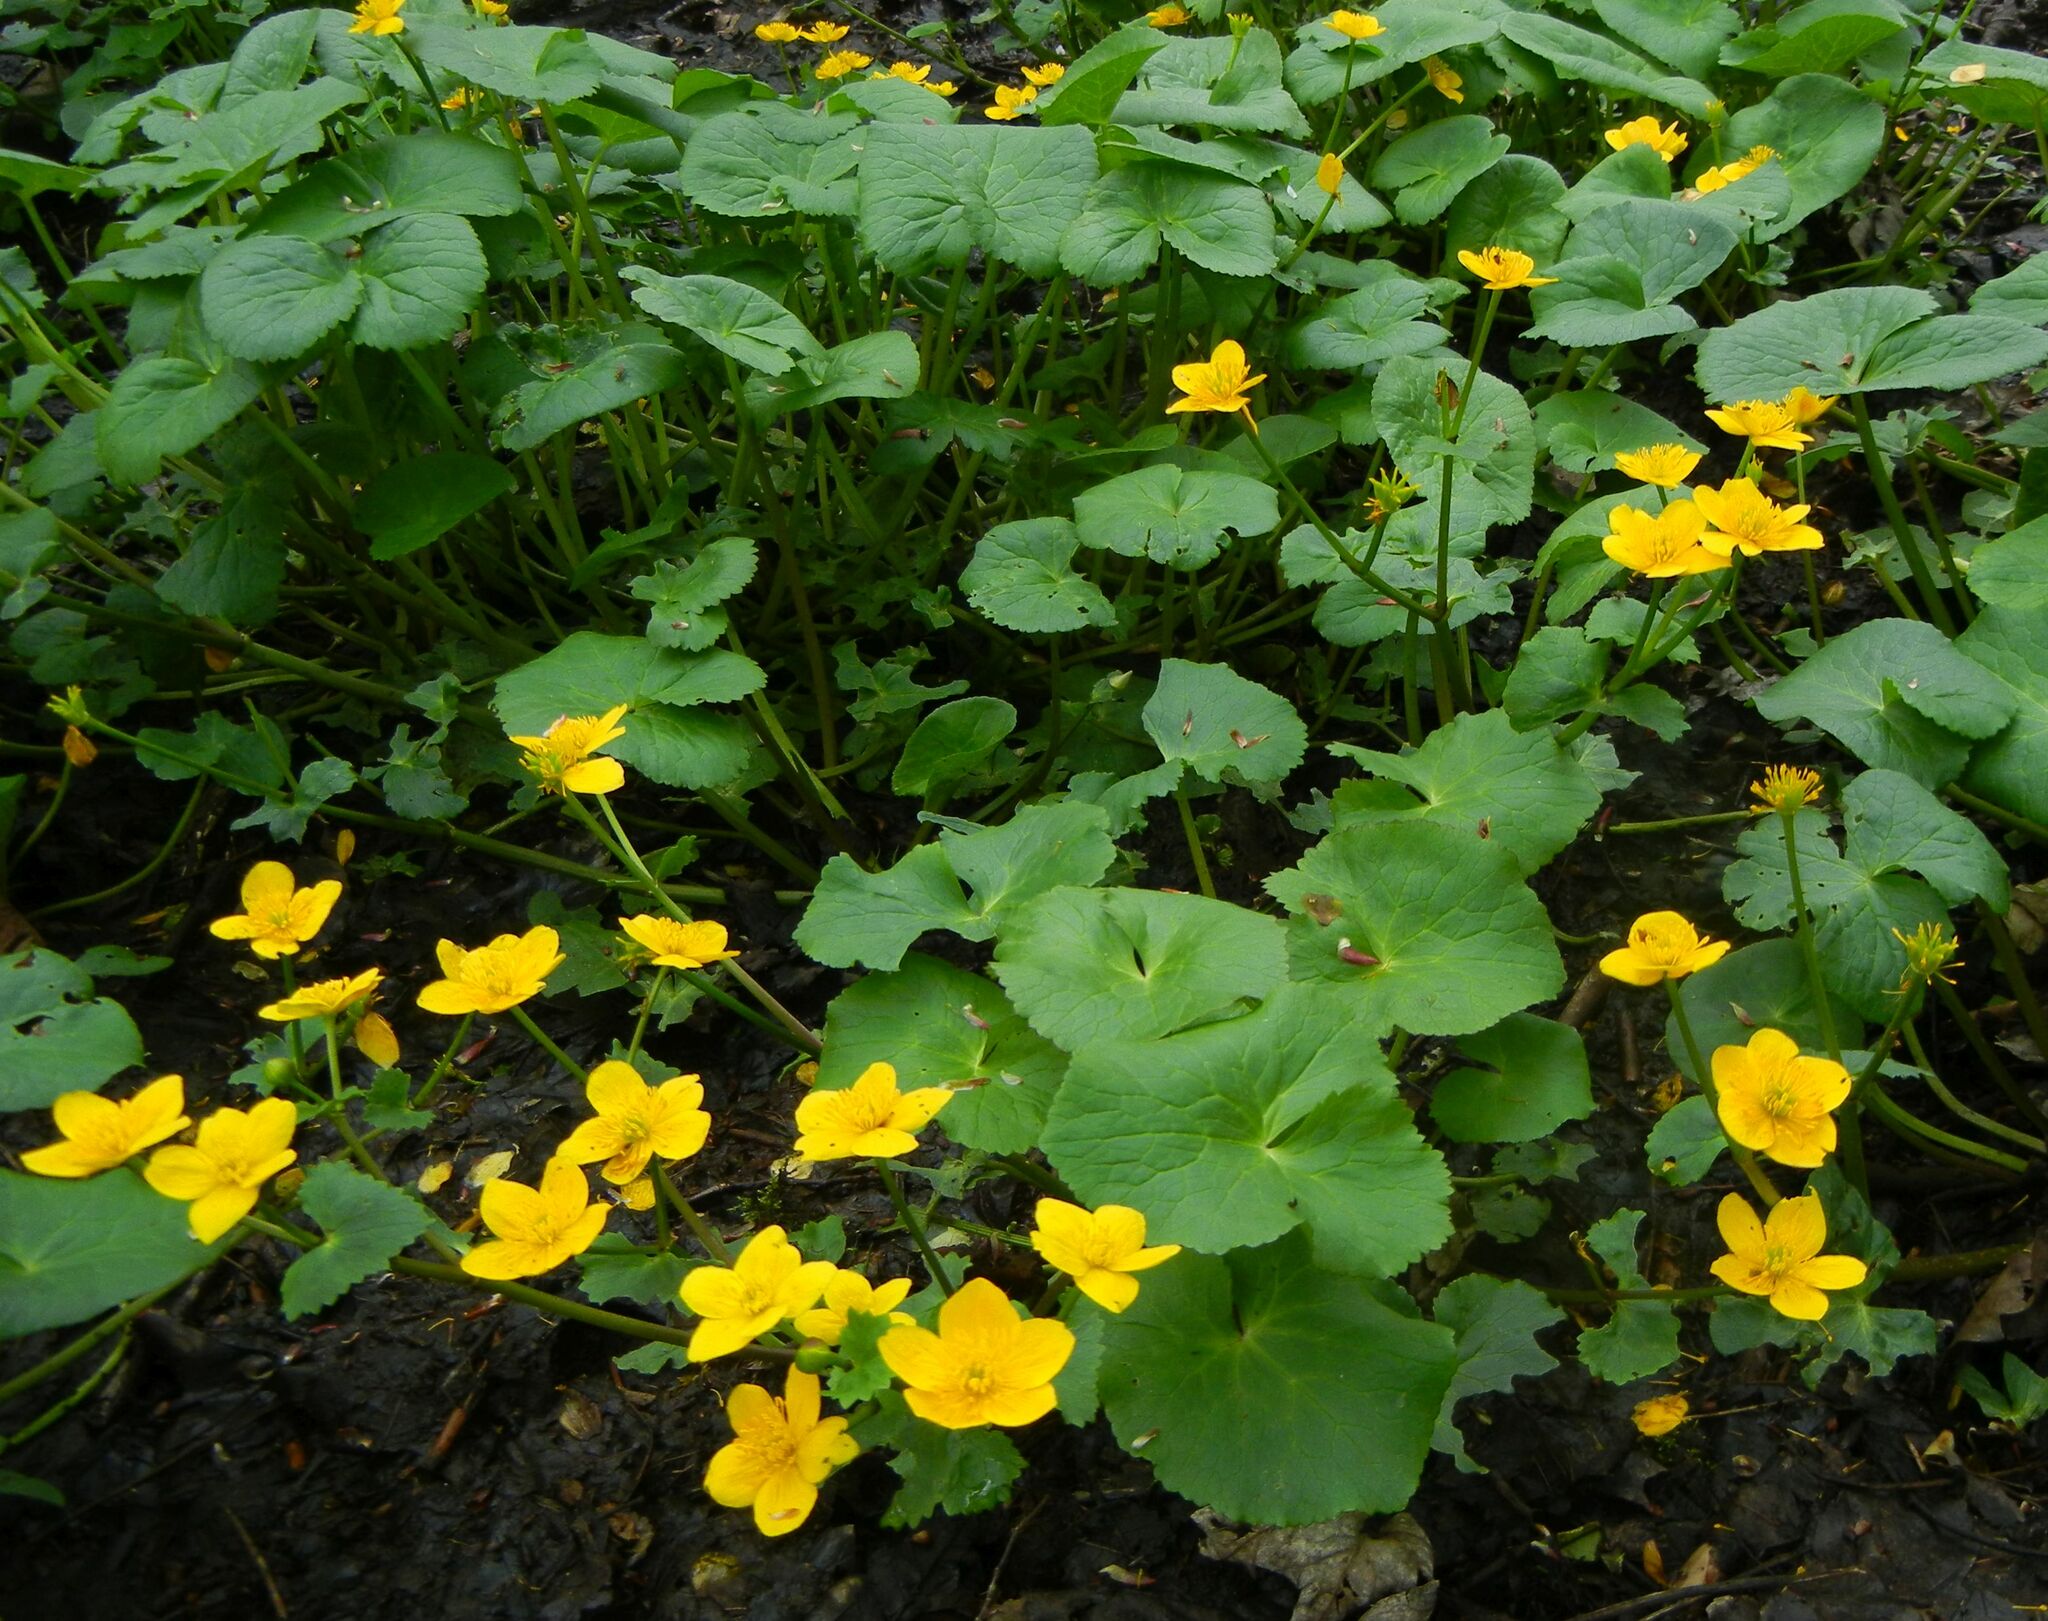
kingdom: Plantae
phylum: Tracheophyta
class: Magnoliopsida
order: Ranunculales
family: Ranunculaceae
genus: Caltha
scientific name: Caltha palustris
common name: Marsh marigold
